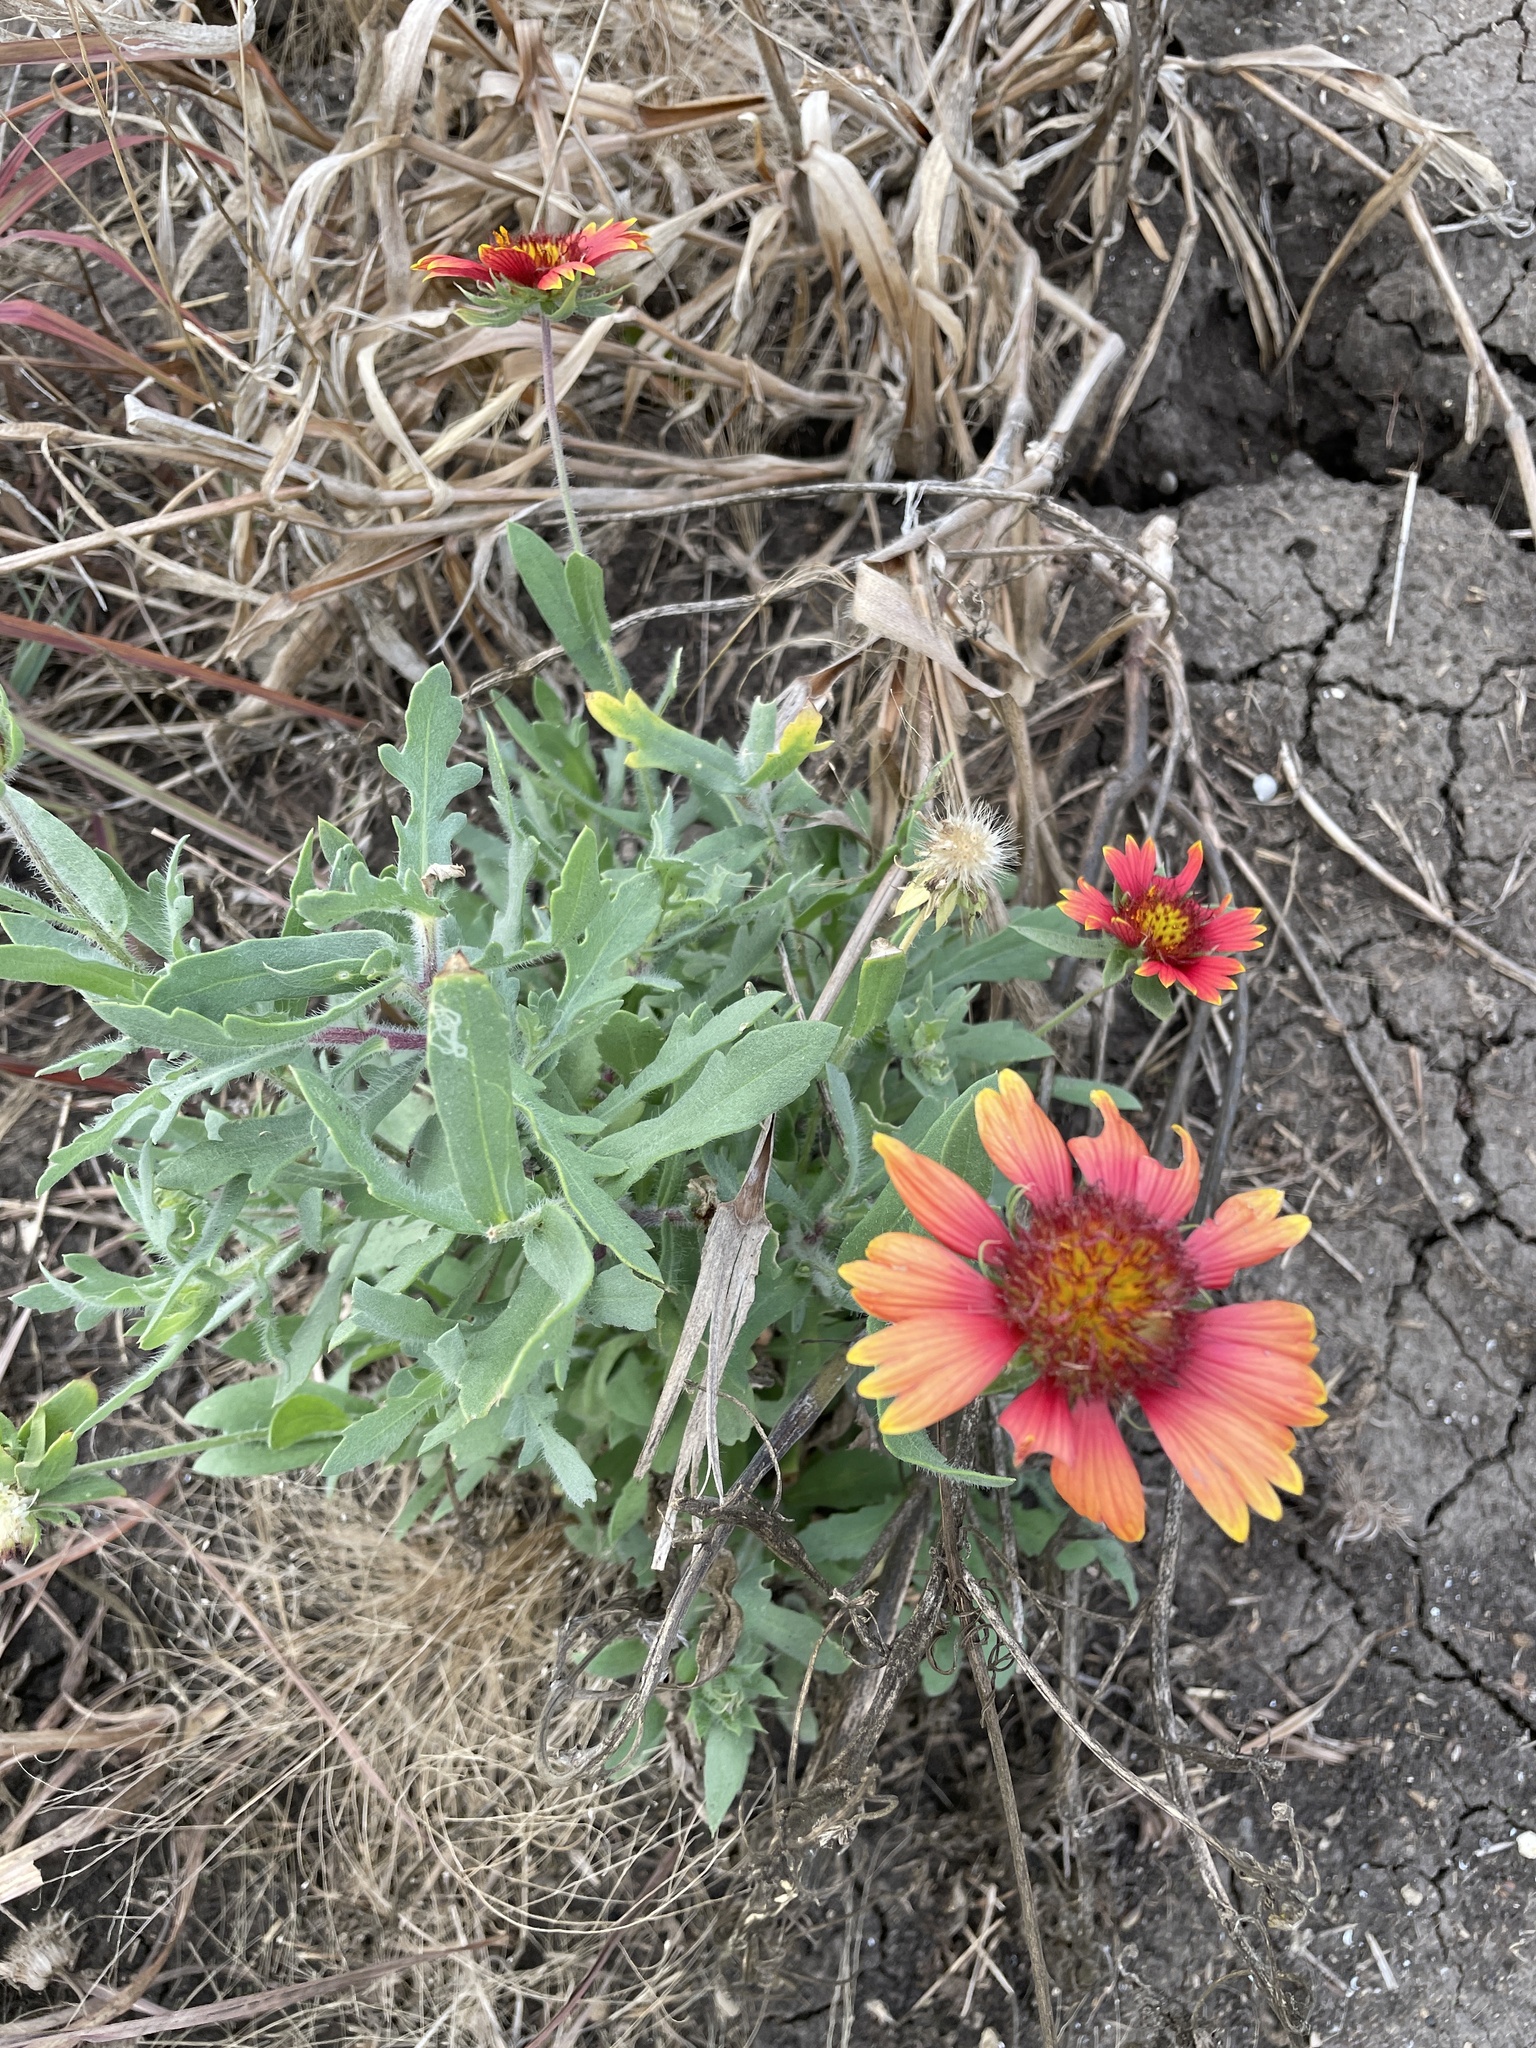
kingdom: Plantae
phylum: Tracheophyta
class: Magnoliopsida
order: Asterales
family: Asteraceae
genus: Gaillardia
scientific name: Gaillardia pulchella
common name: Firewheel
